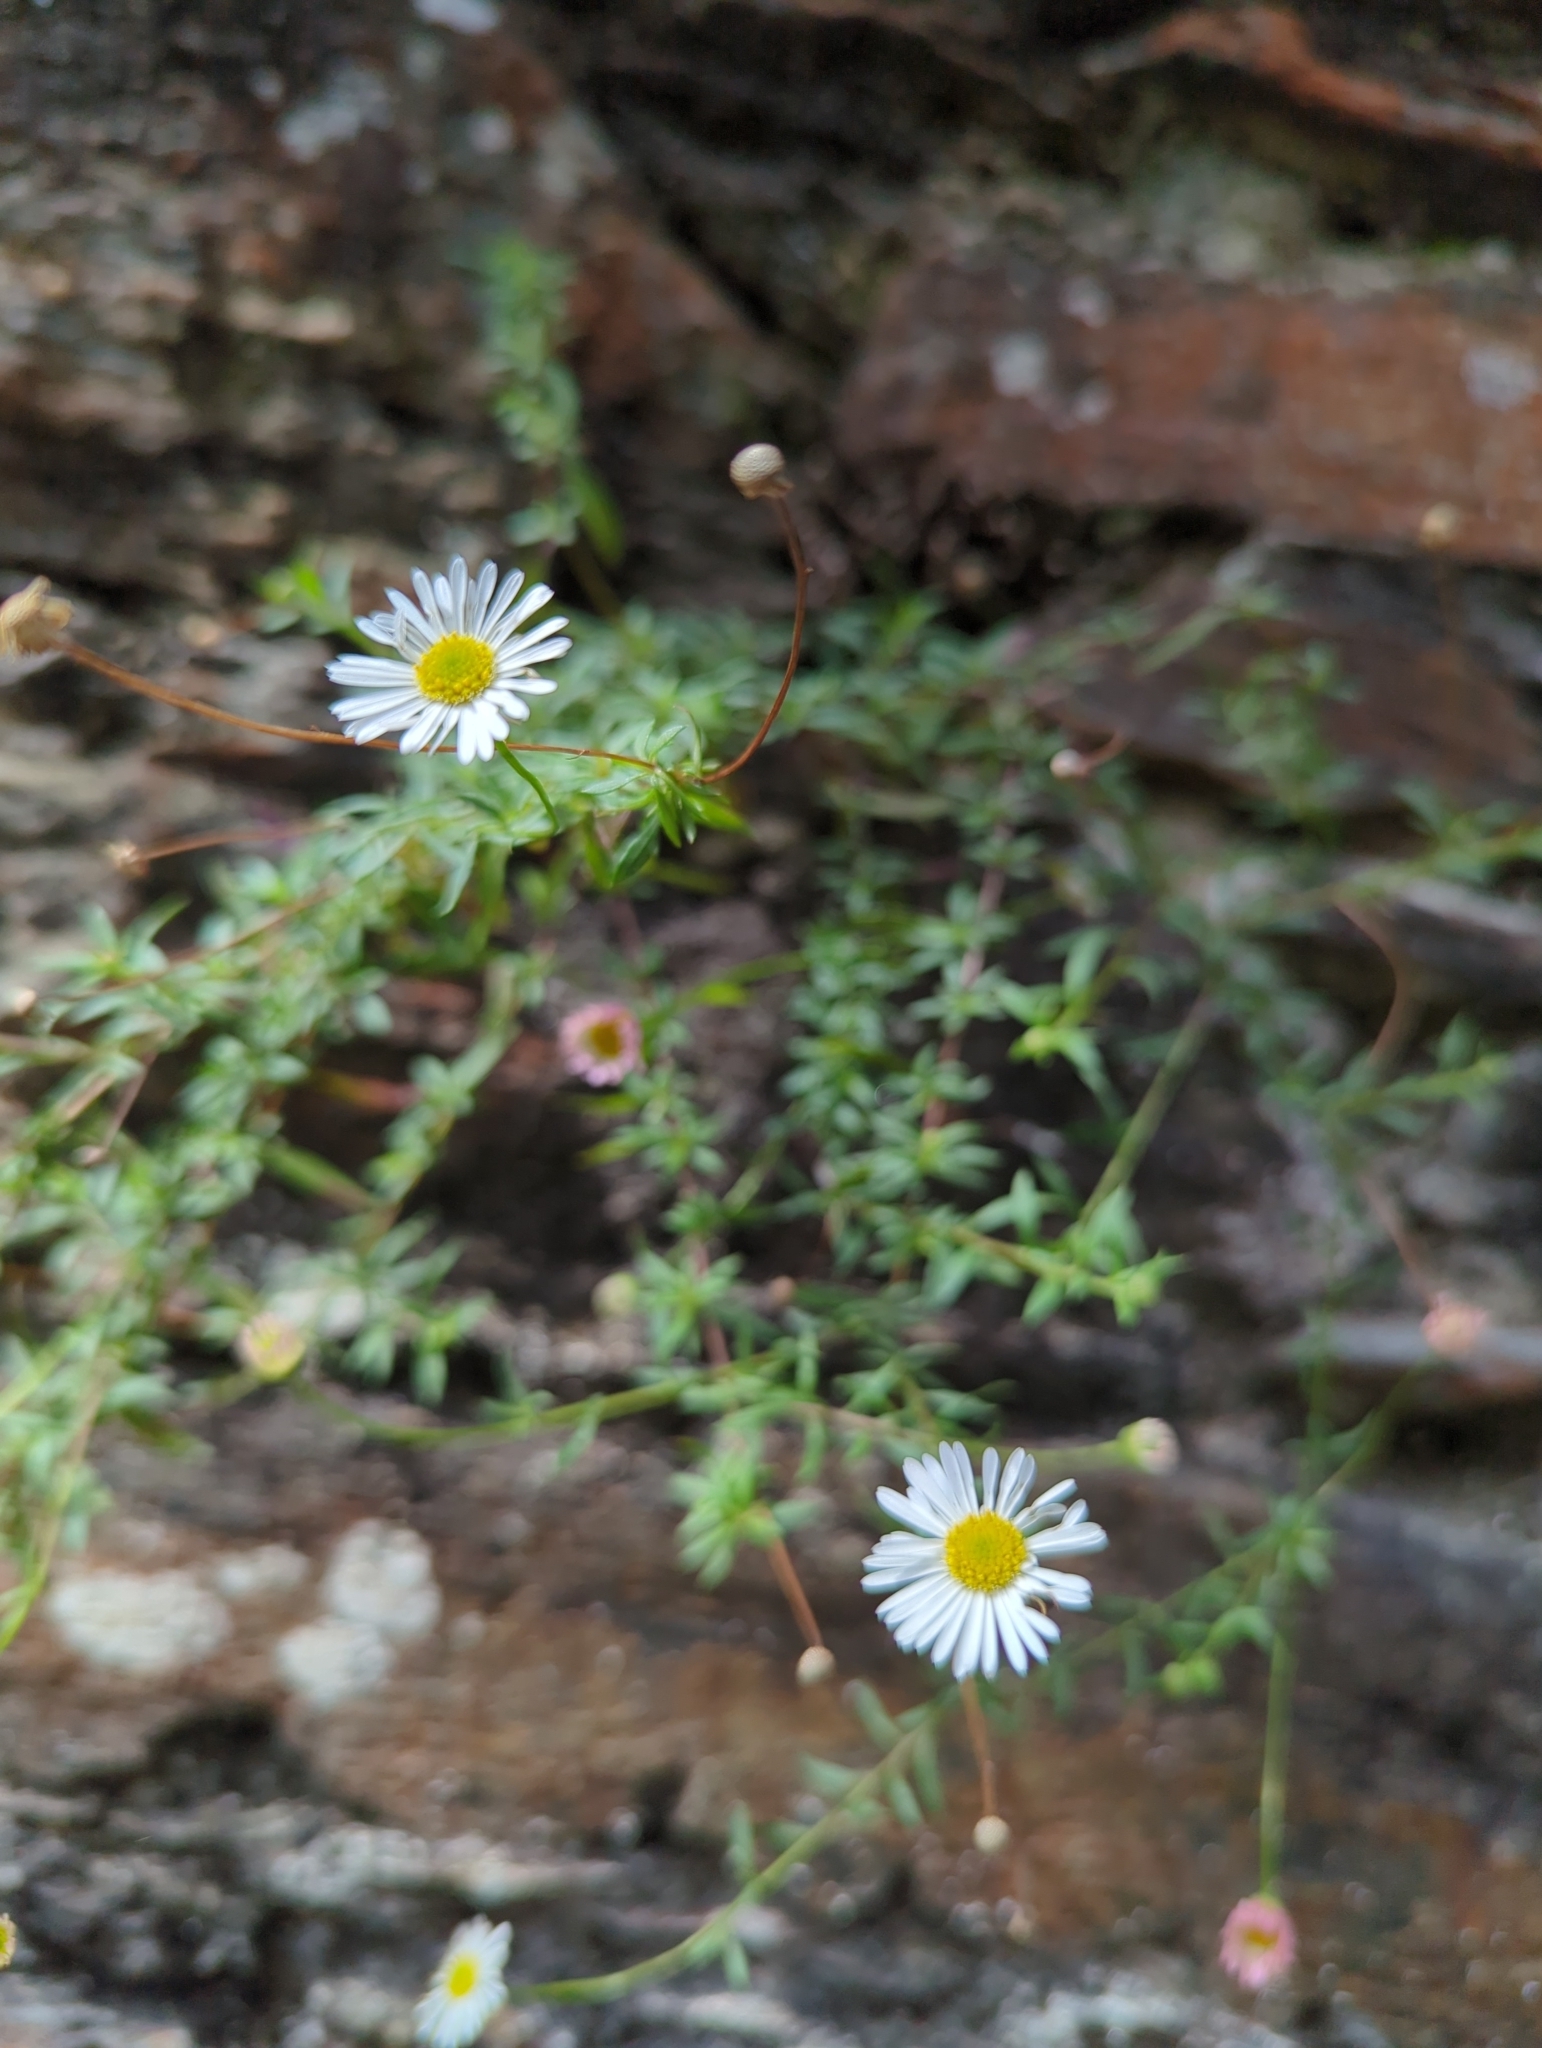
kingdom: Plantae
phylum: Tracheophyta
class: Magnoliopsida
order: Asterales
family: Asteraceae
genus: Erigeron
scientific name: Erigeron karvinskianus
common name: Mexican fleabane
